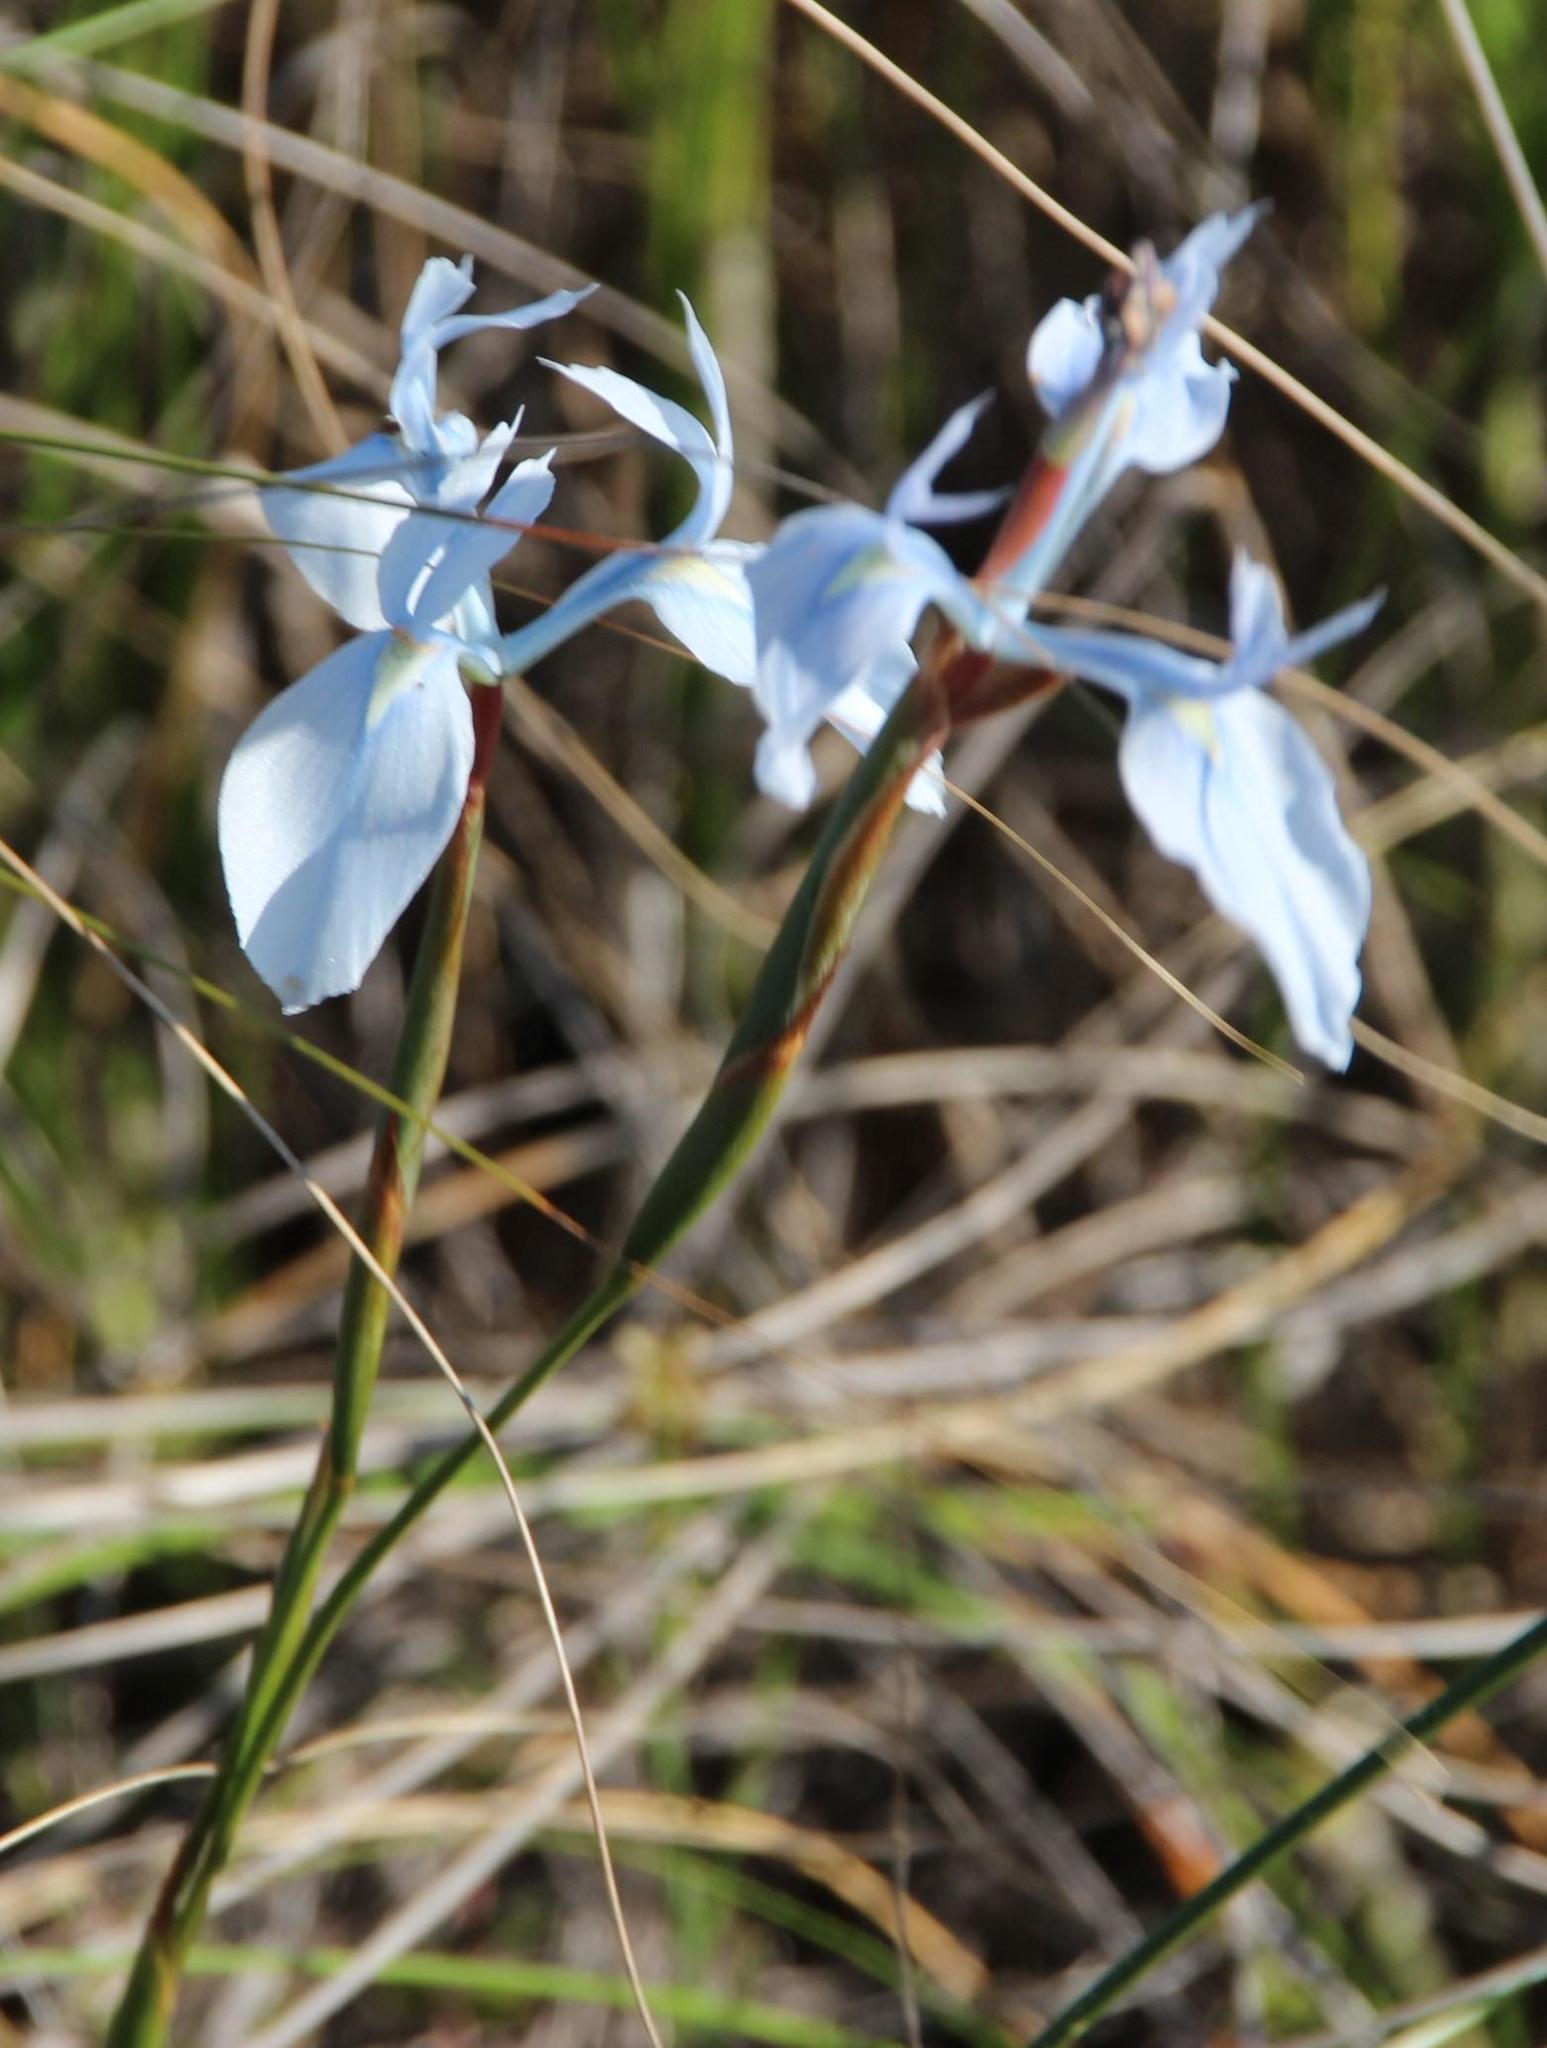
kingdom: Plantae
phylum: Tracheophyta
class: Liliopsida
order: Asparagales
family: Iridaceae
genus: Moraea
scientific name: Moraea tripetala
